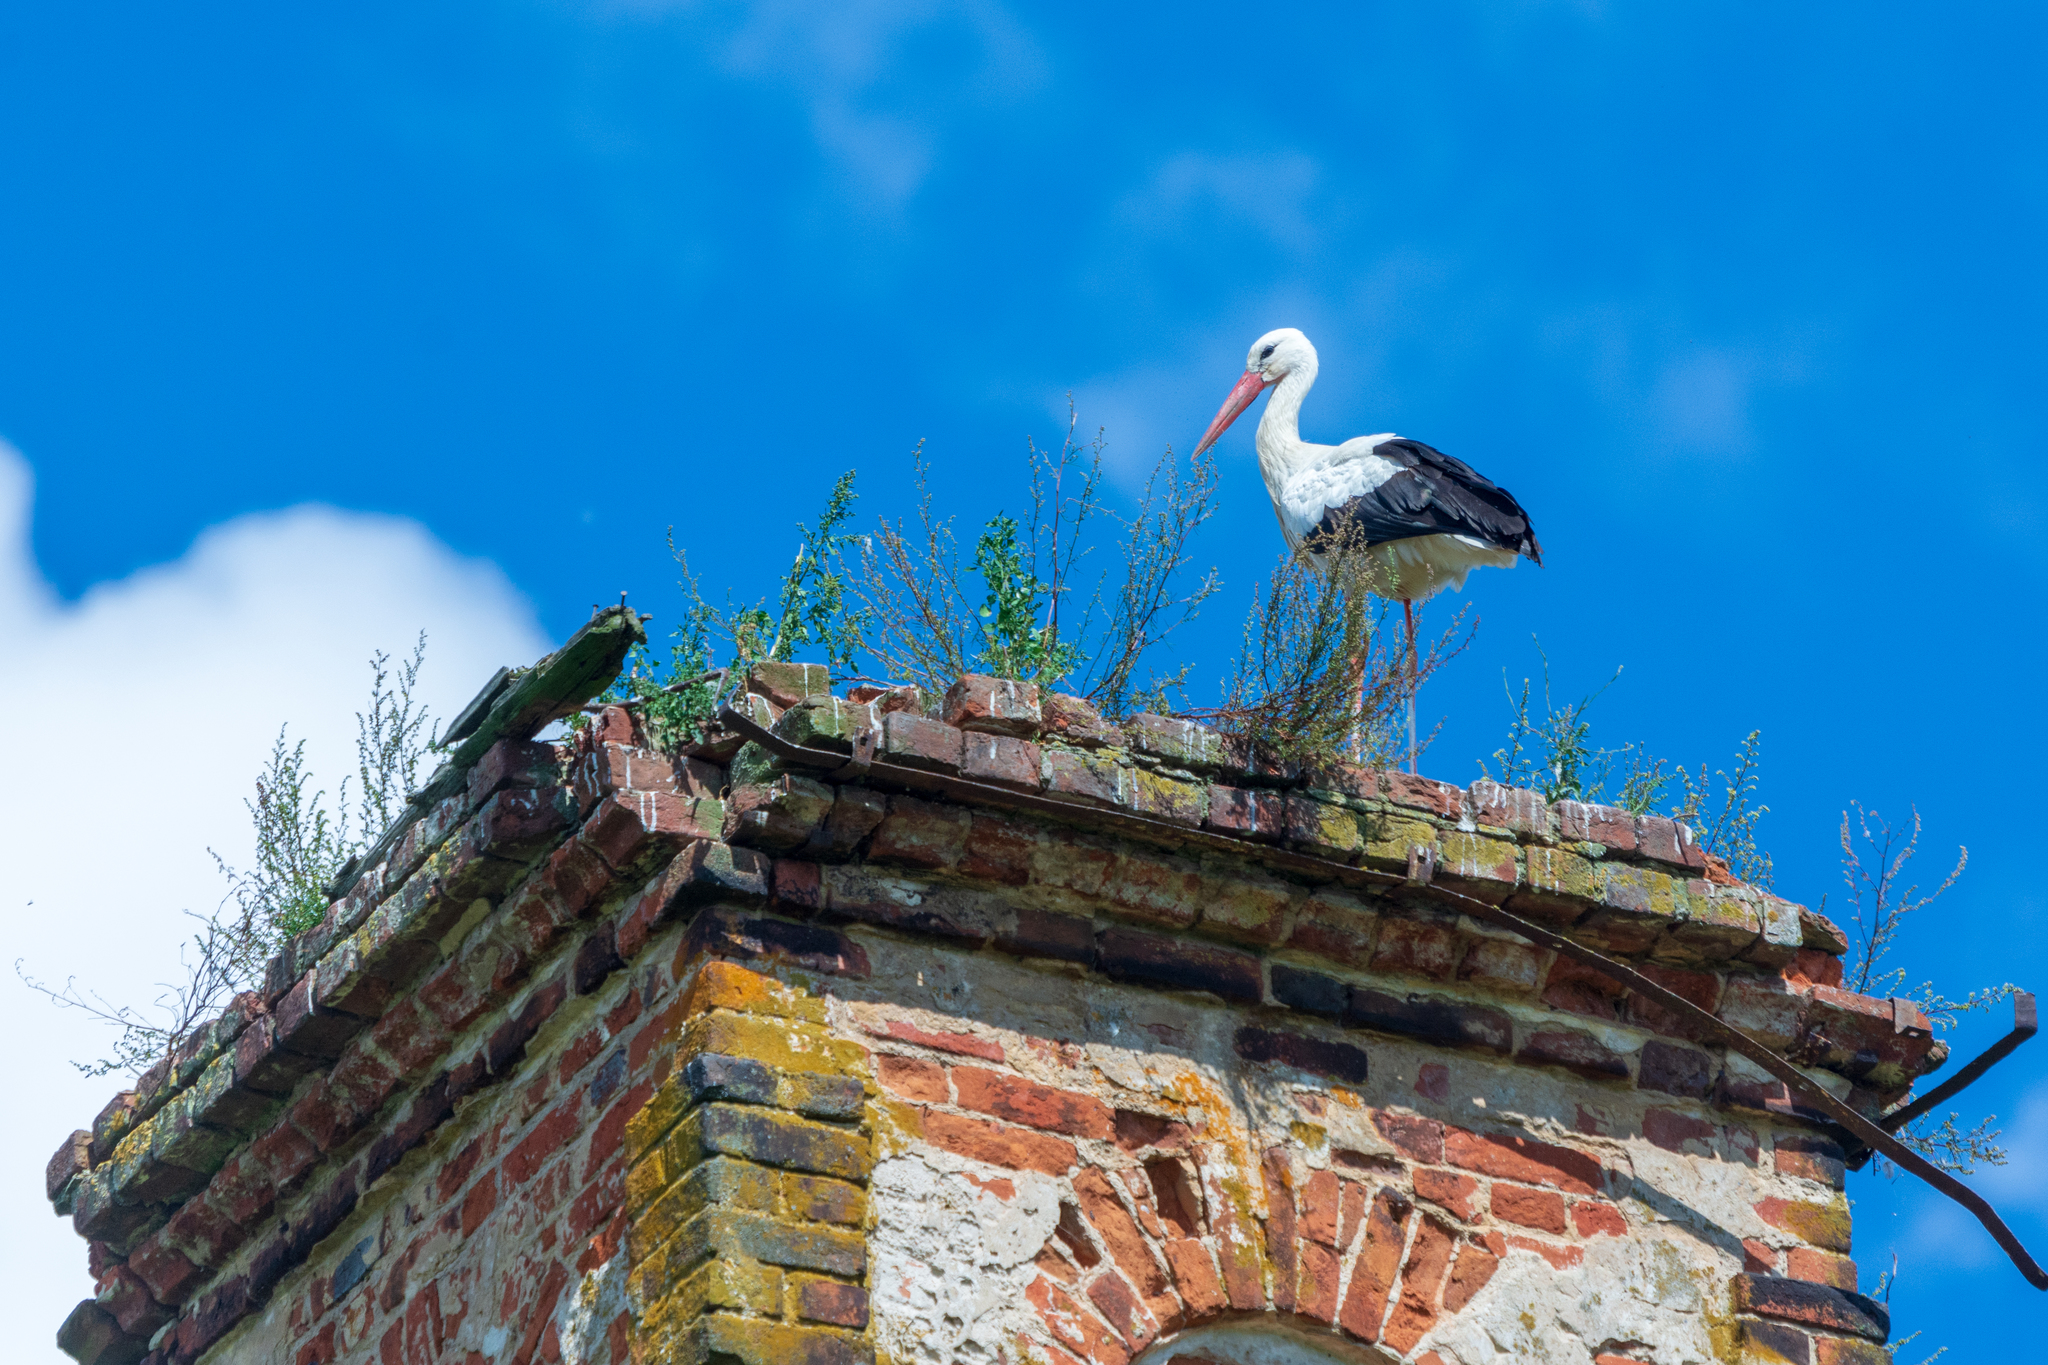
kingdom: Animalia
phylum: Chordata
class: Aves
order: Ciconiiformes
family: Ciconiidae
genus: Ciconia
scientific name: Ciconia ciconia
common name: White stork
